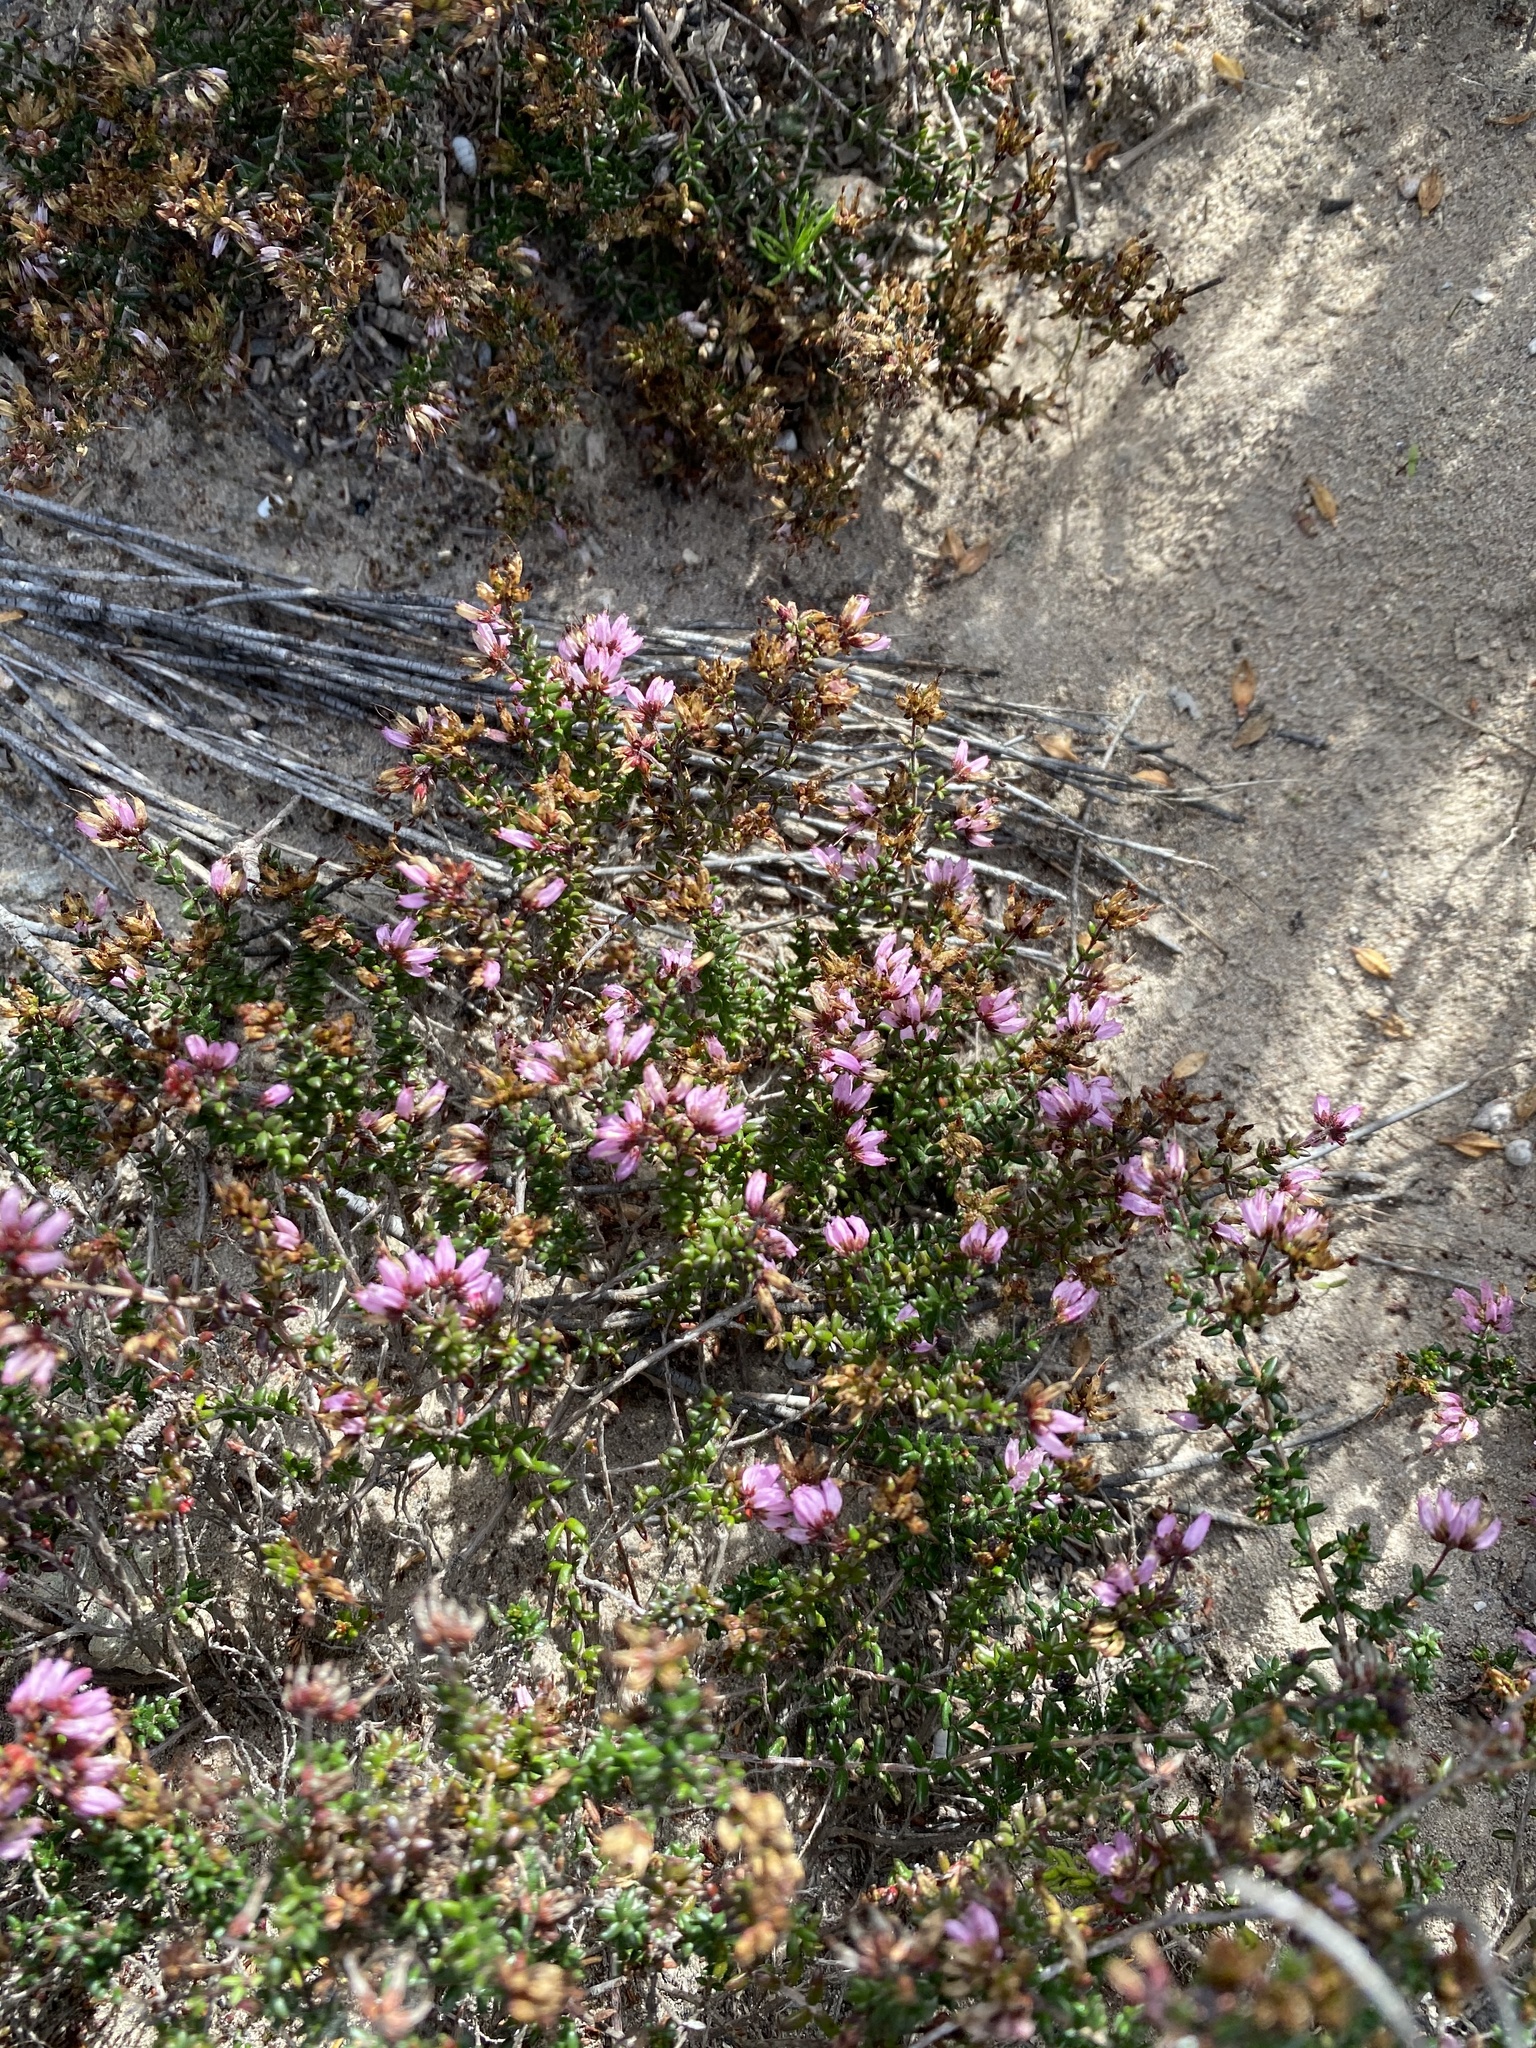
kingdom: Plantae
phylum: Tracheophyta
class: Magnoliopsida
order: Ericales
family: Ericaceae
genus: Erica
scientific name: Erica rosacea
